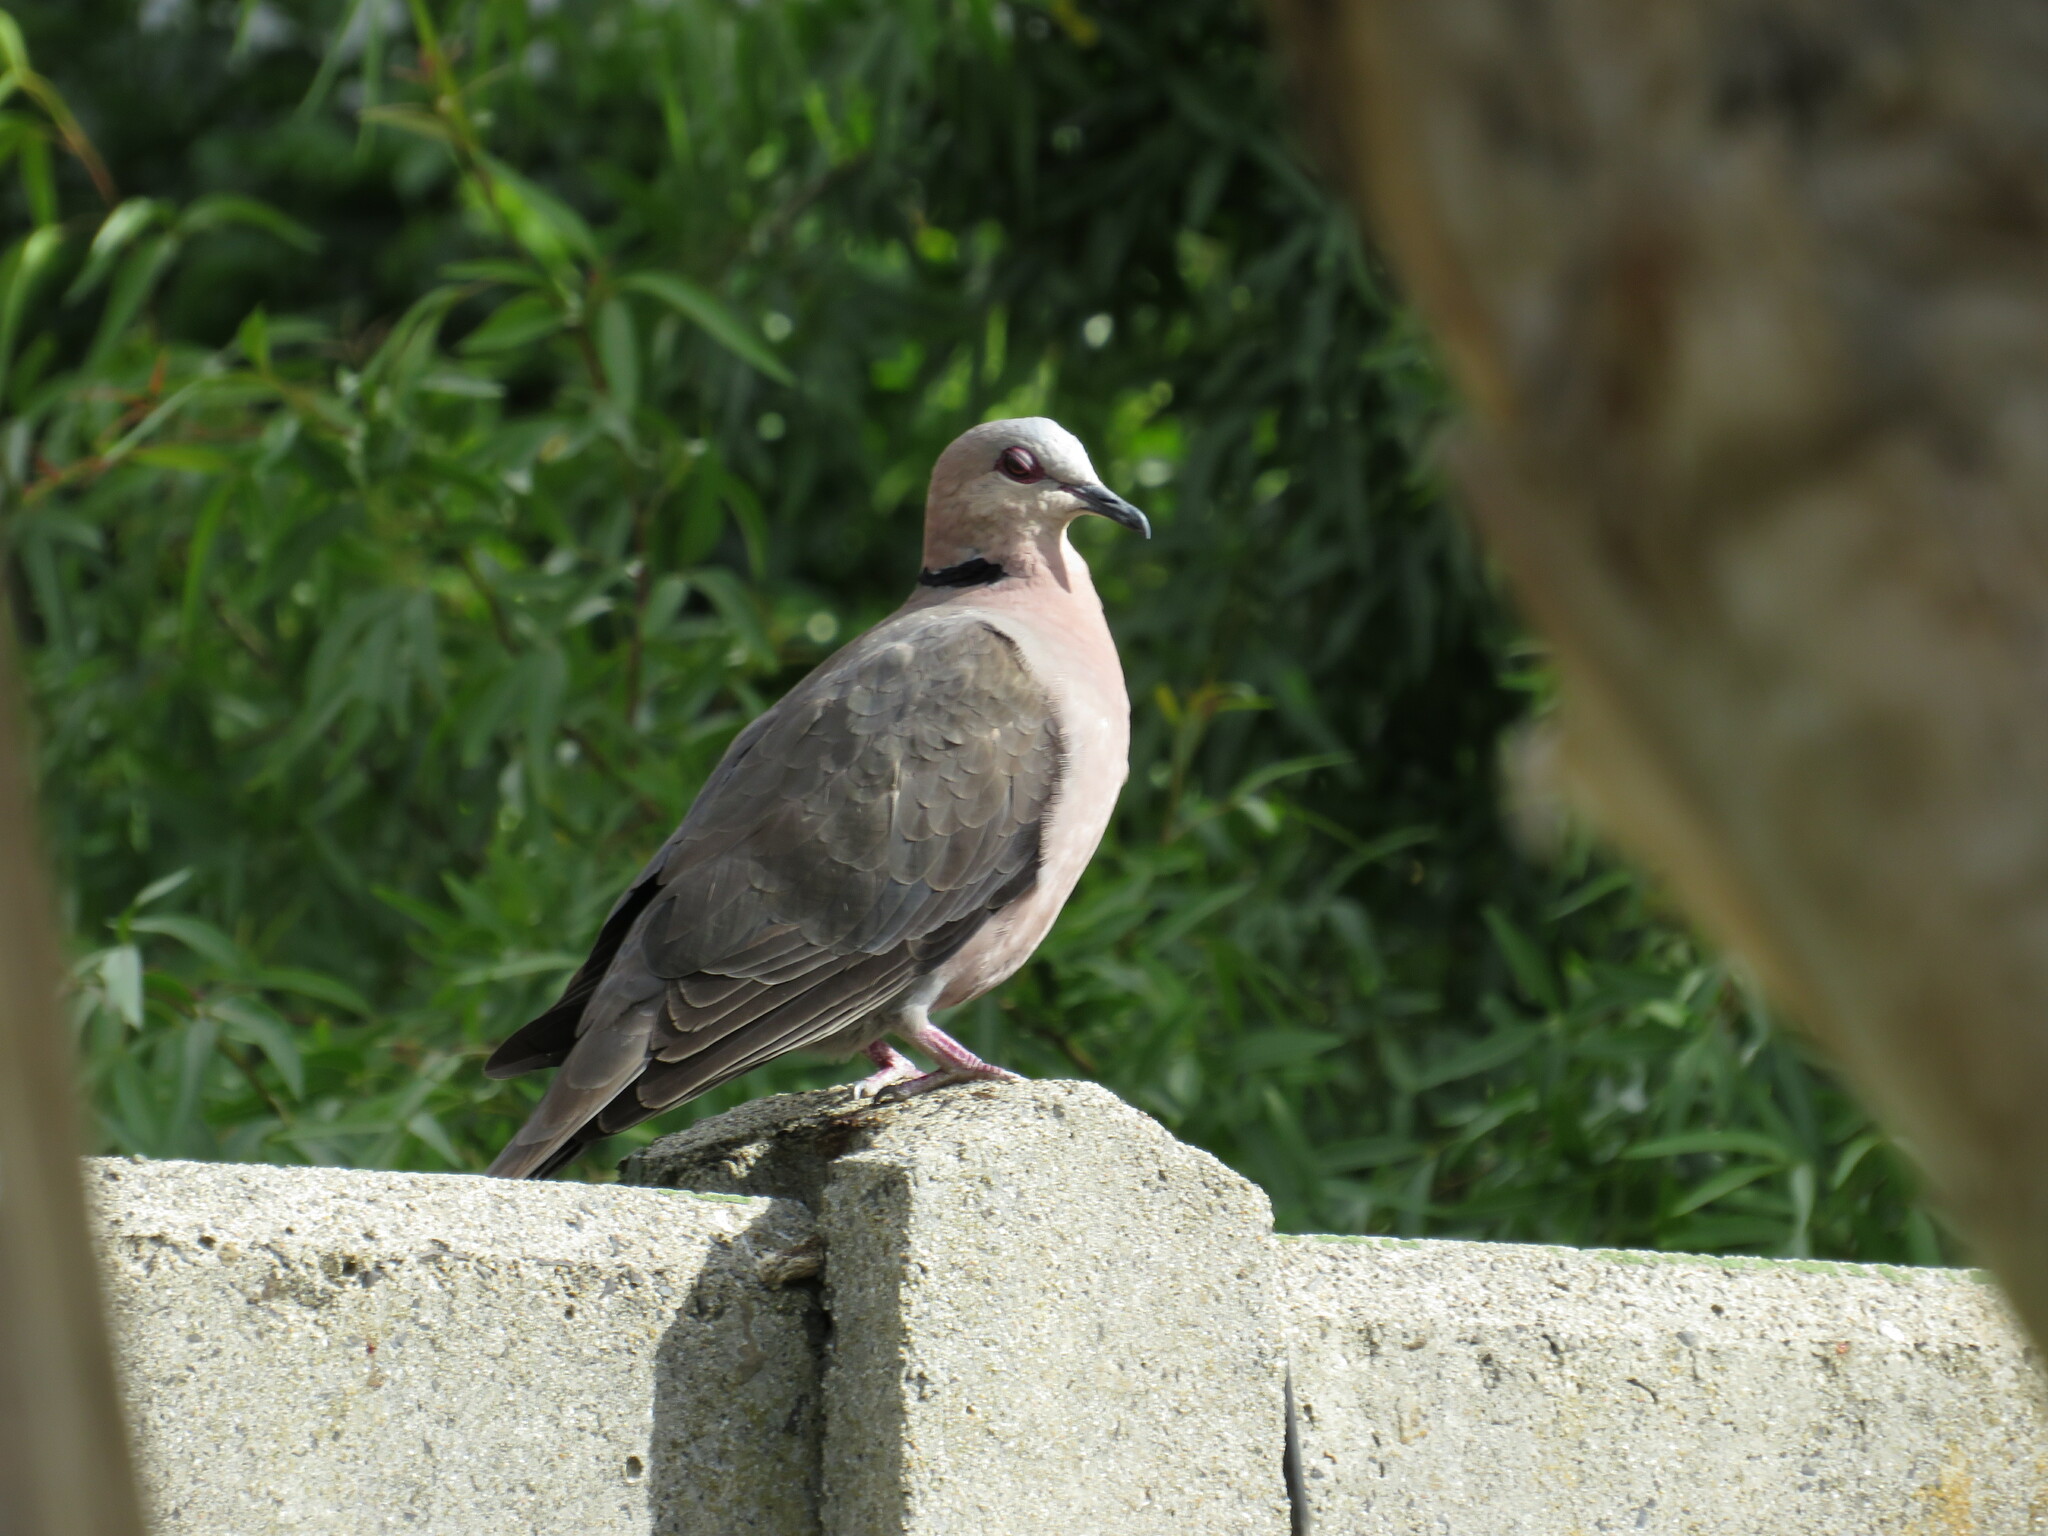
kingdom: Animalia
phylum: Chordata
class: Aves
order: Columbiformes
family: Columbidae
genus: Streptopelia
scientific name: Streptopelia semitorquata
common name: Red-eyed dove
